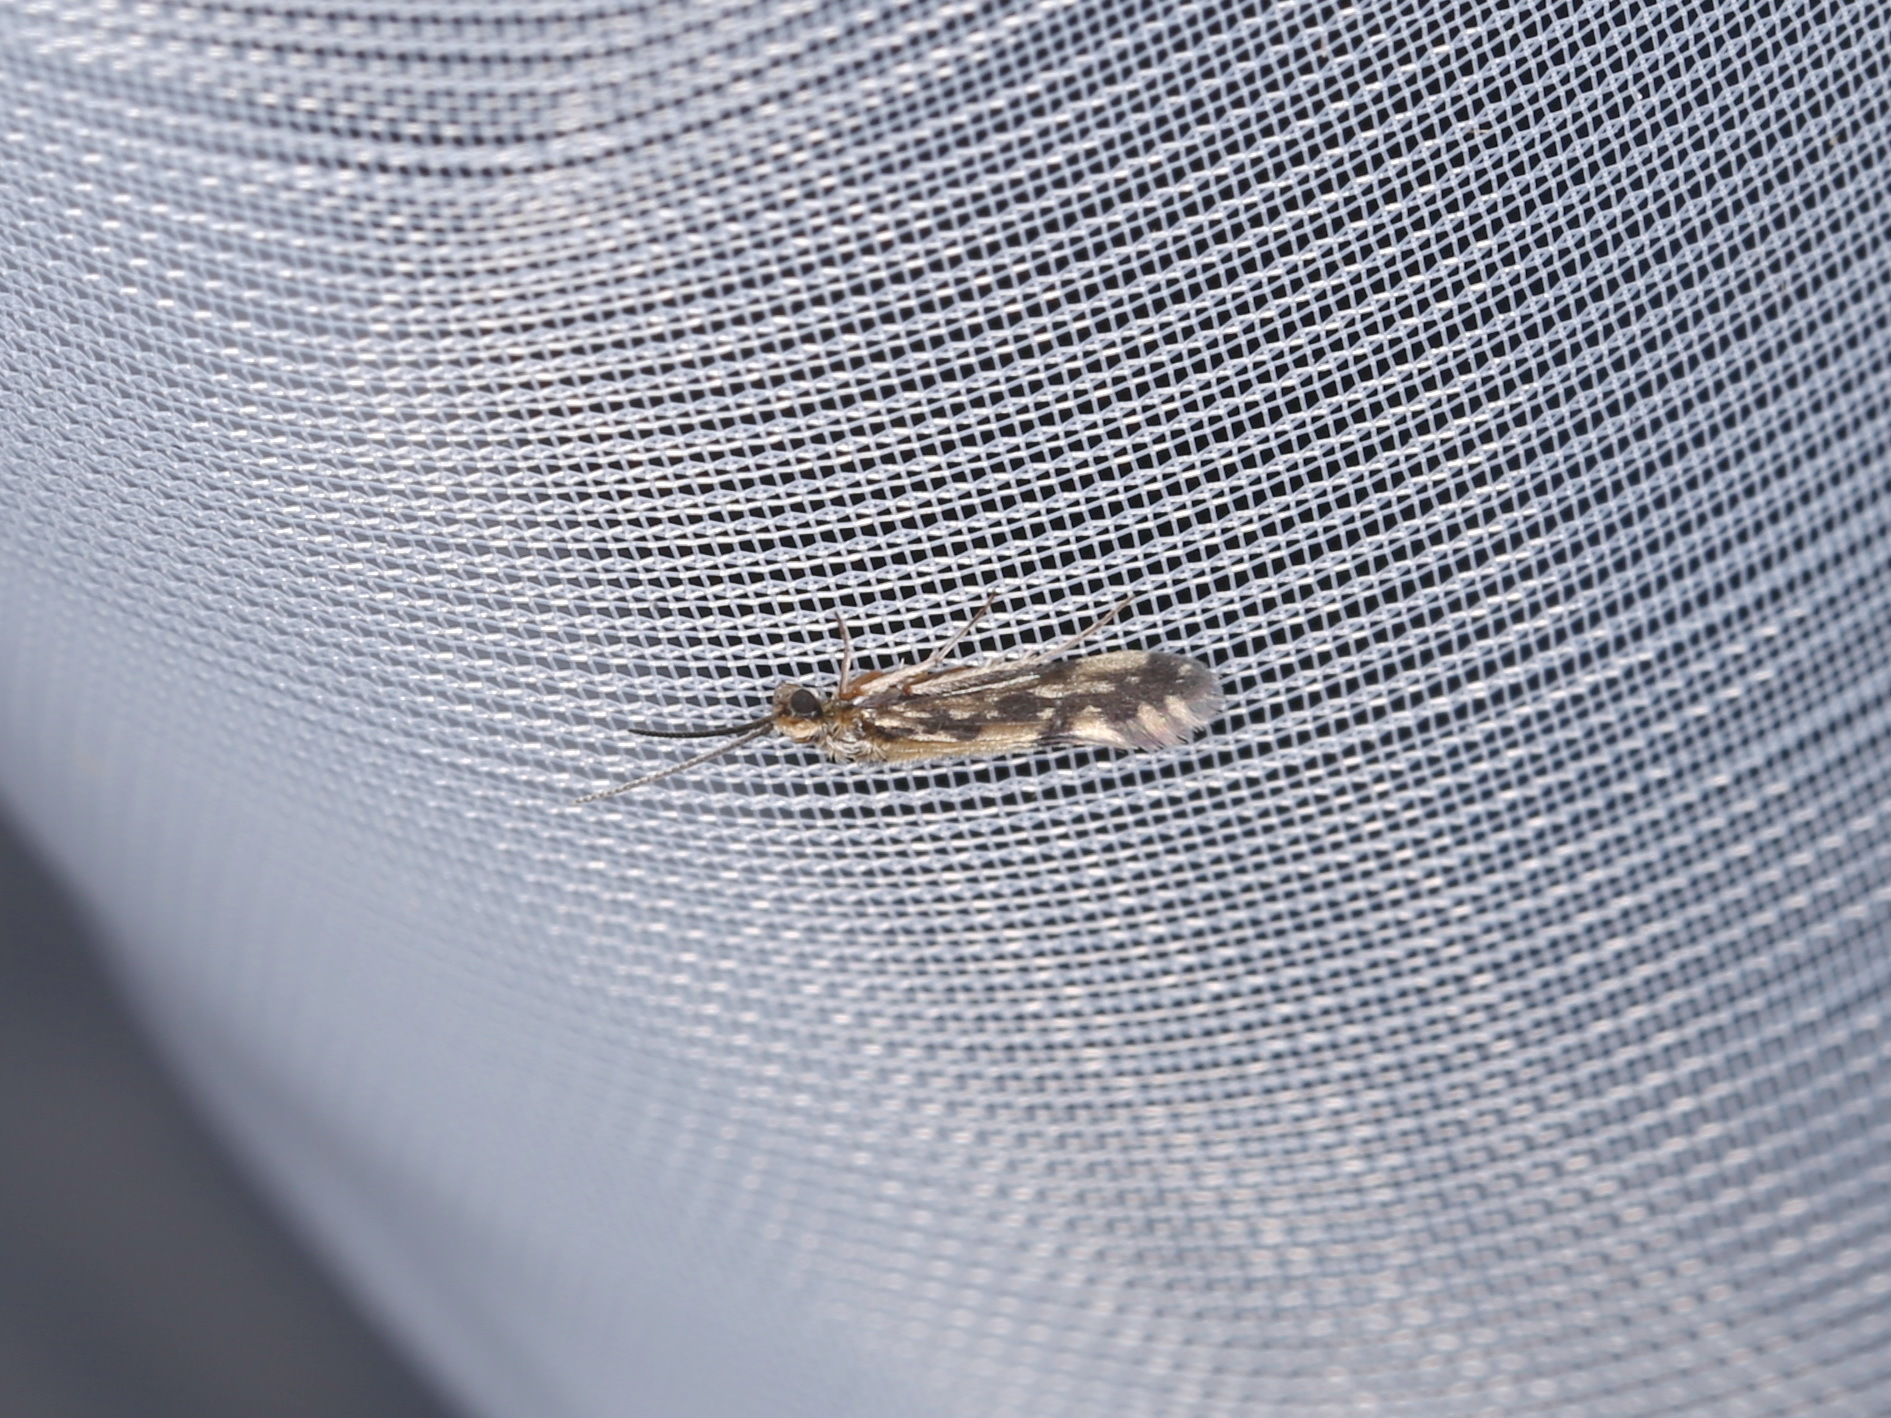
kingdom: Animalia
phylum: Arthropoda
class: Insecta
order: Trichoptera
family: Hydroptilidae
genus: Agraylea
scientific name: Agraylea multipunctata
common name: Salt and pepper microcaddisfly
